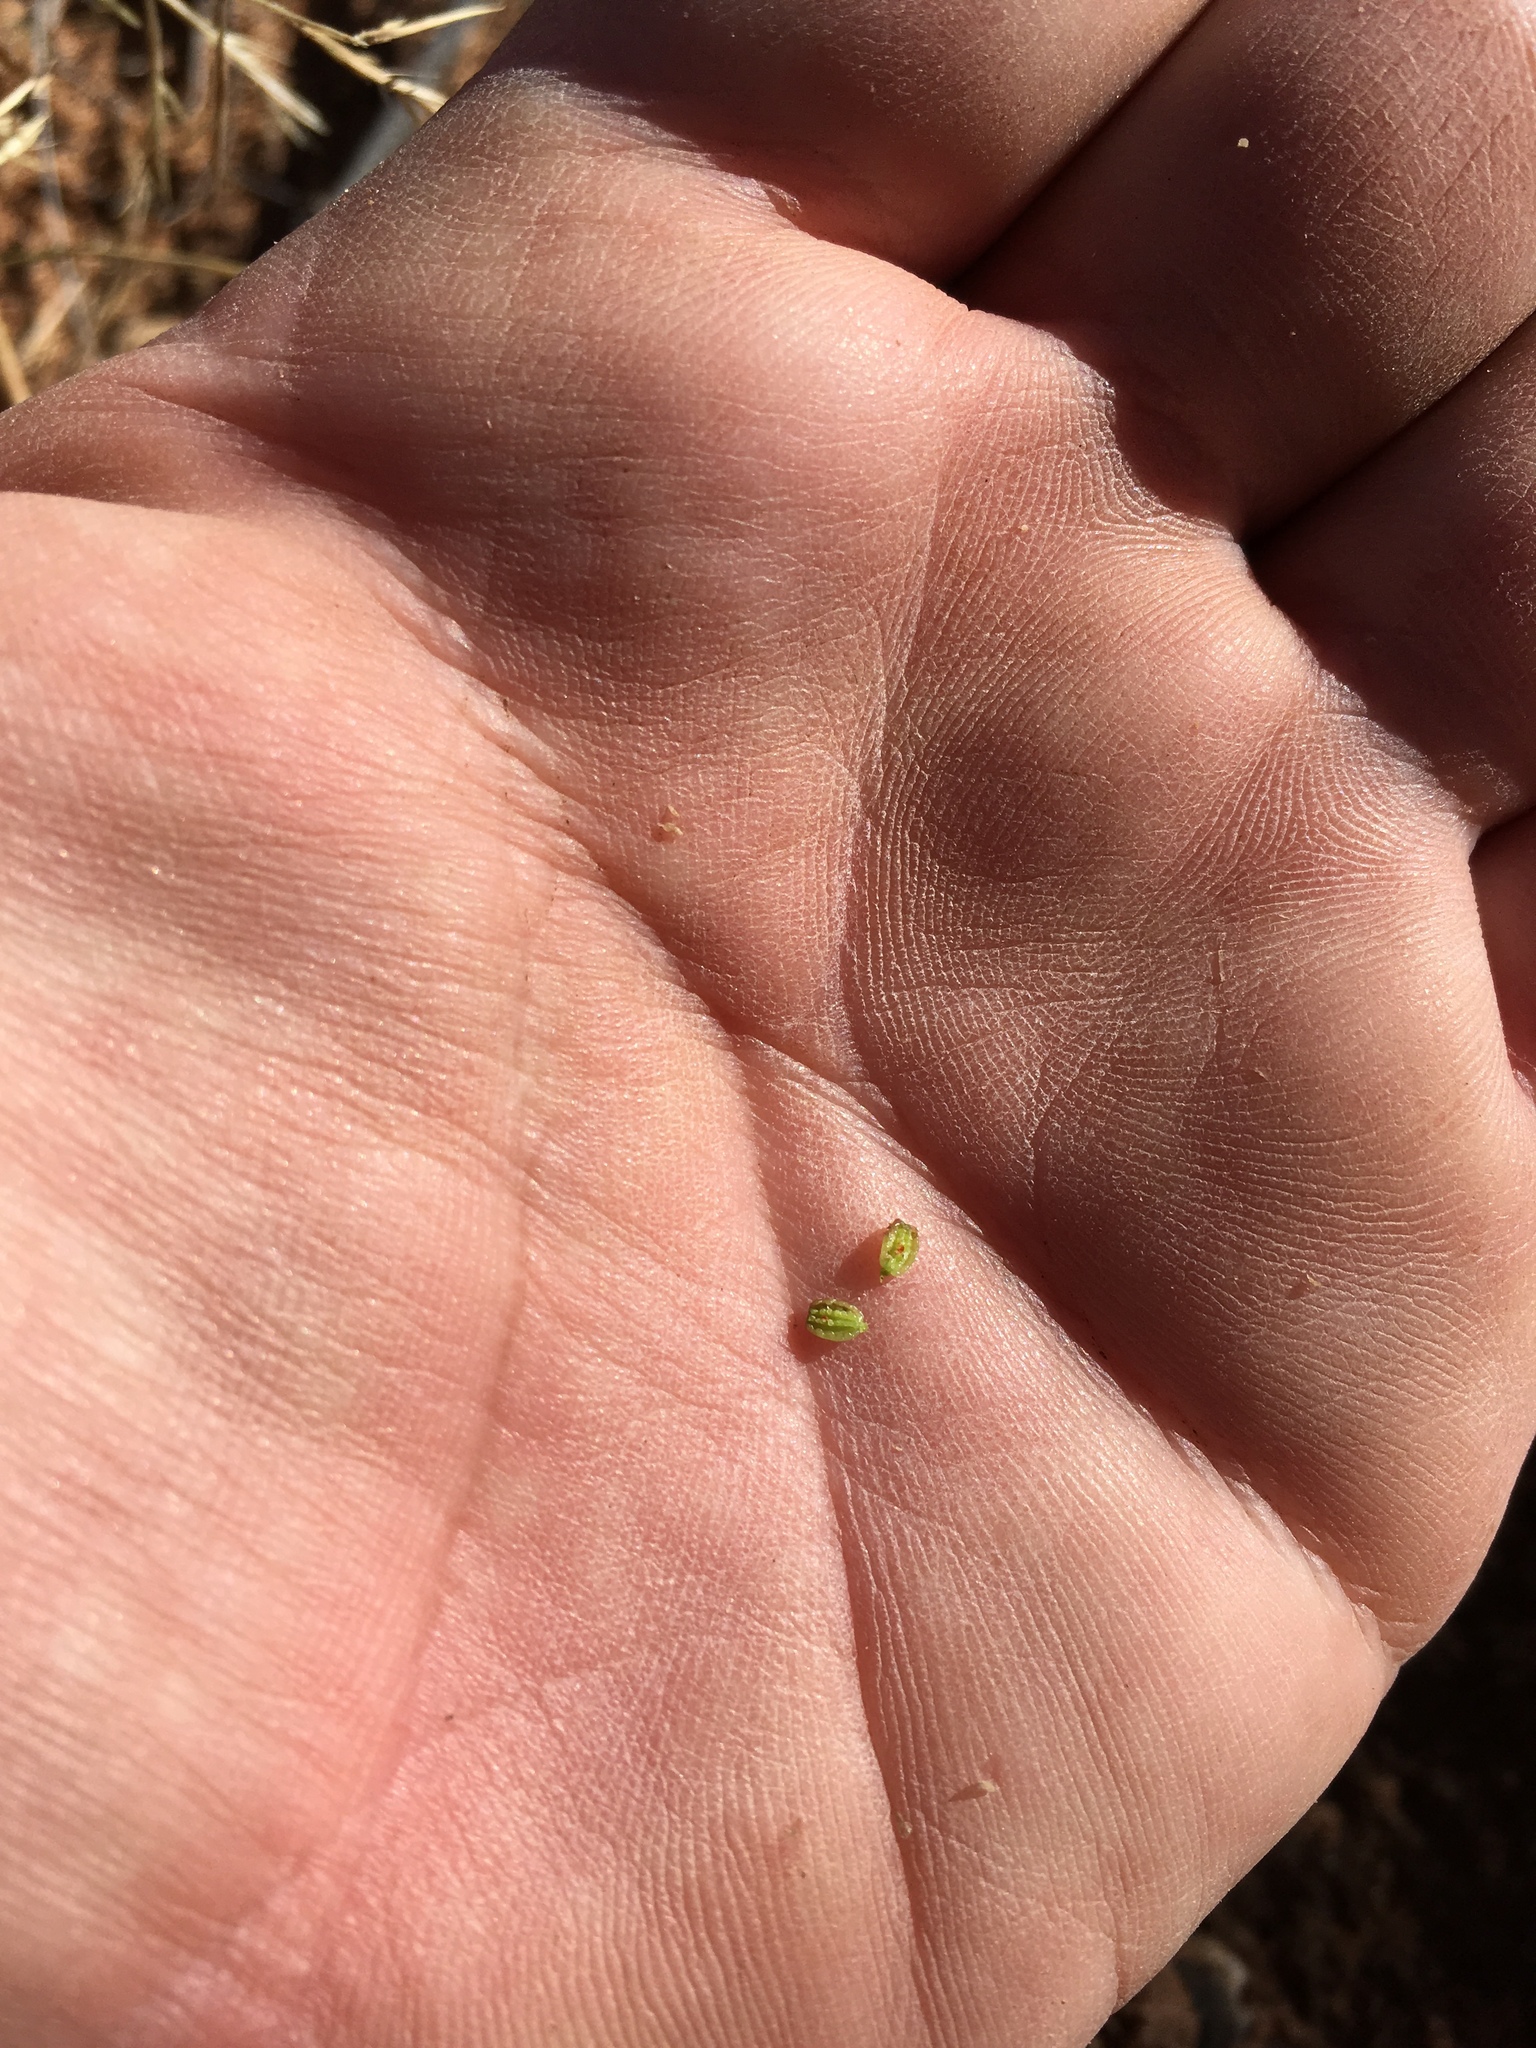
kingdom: Plantae
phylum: Tracheophyta
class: Magnoliopsida
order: Caryophyllales
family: Nyctaginaceae
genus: Allionia
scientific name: Allionia incarnata
